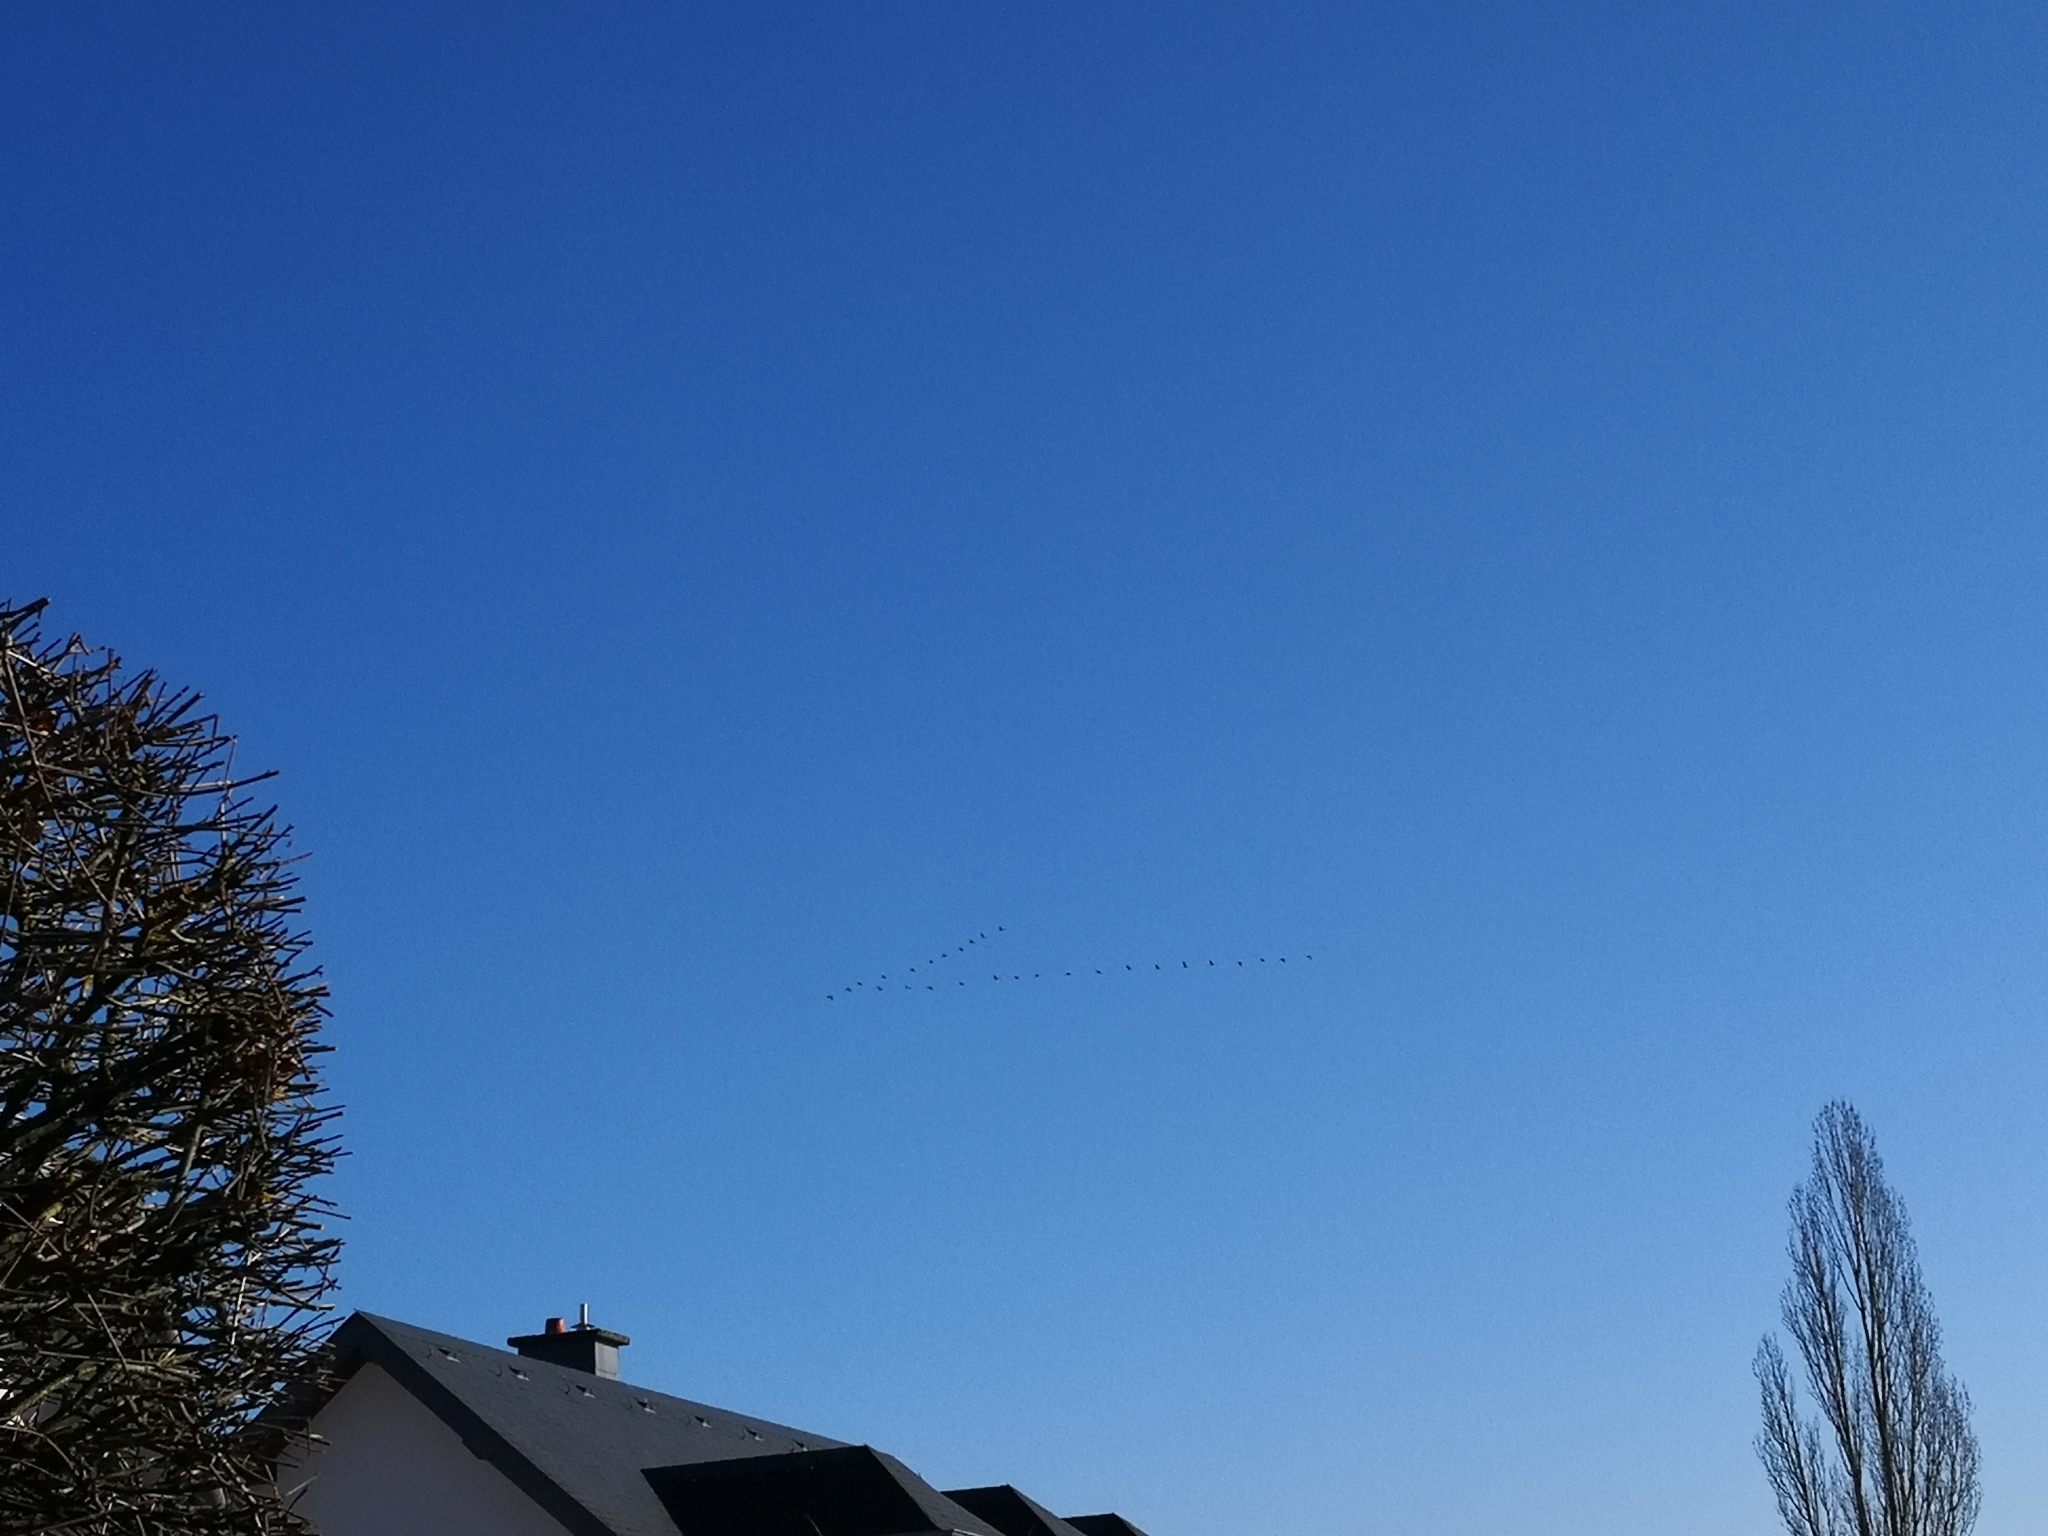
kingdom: Animalia
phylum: Chordata
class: Aves
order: Gruiformes
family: Gruidae
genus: Grus
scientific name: Grus grus
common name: Common crane
